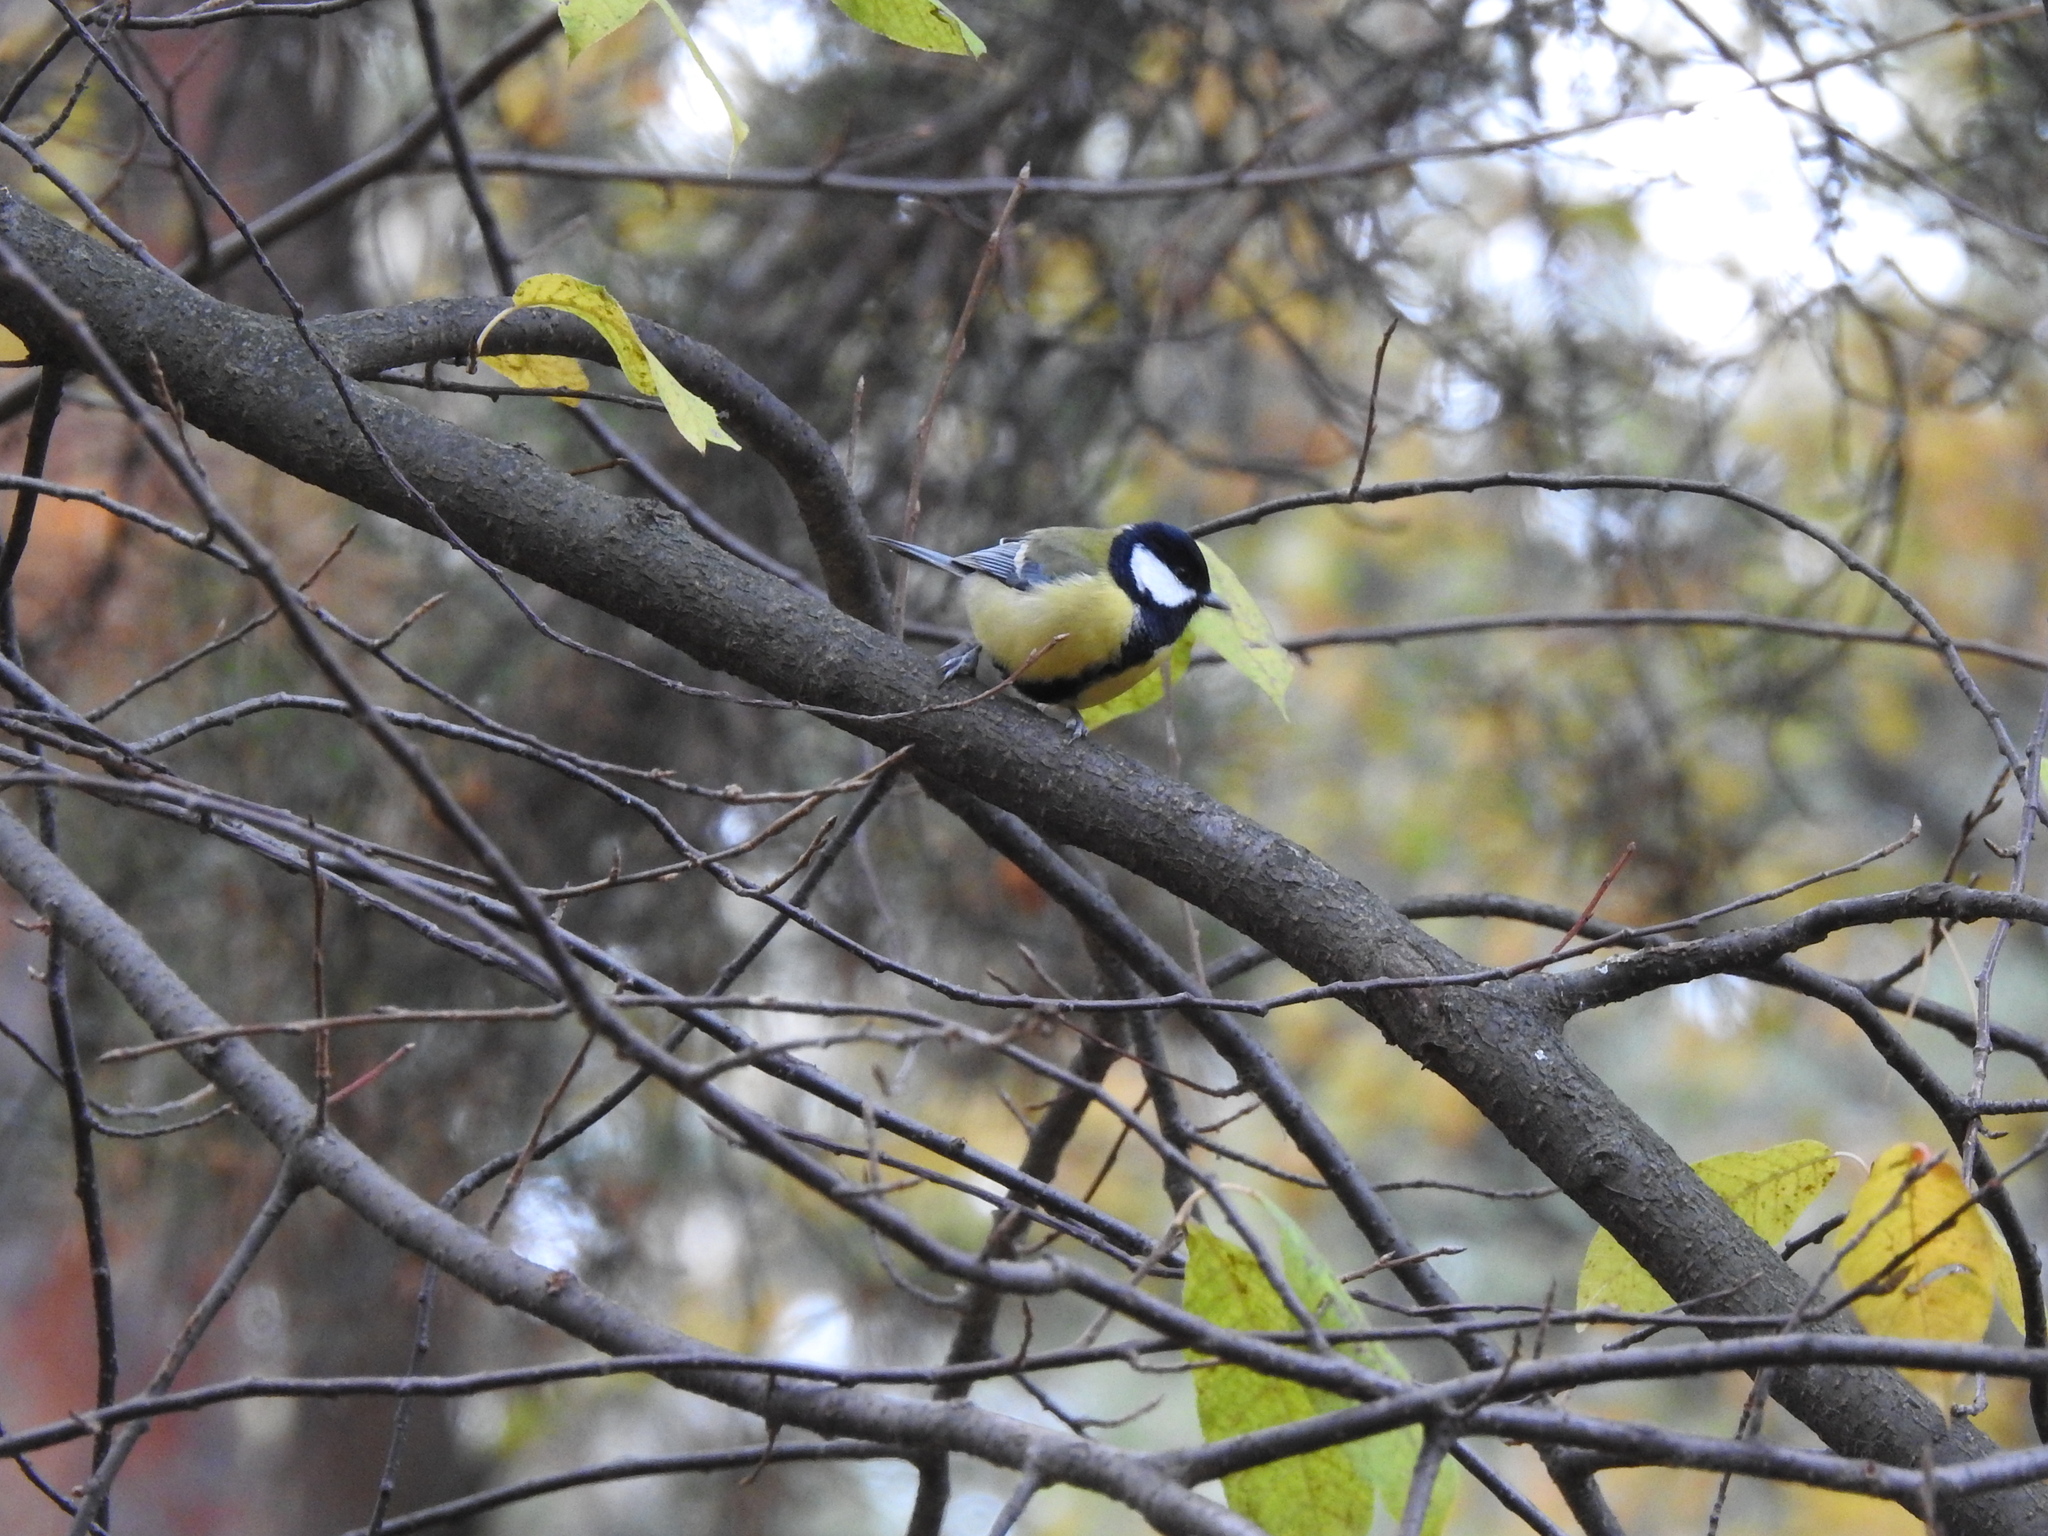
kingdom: Animalia
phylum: Chordata
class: Aves
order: Passeriformes
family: Paridae
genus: Parus
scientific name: Parus major
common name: Great tit
